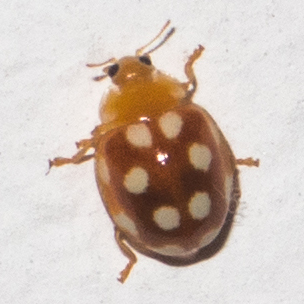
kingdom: Animalia
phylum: Arthropoda
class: Insecta
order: Coleoptera
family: Coccinellidae
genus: Vibidia
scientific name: Vibidia duodecimguttata
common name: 12-spot ladybird
